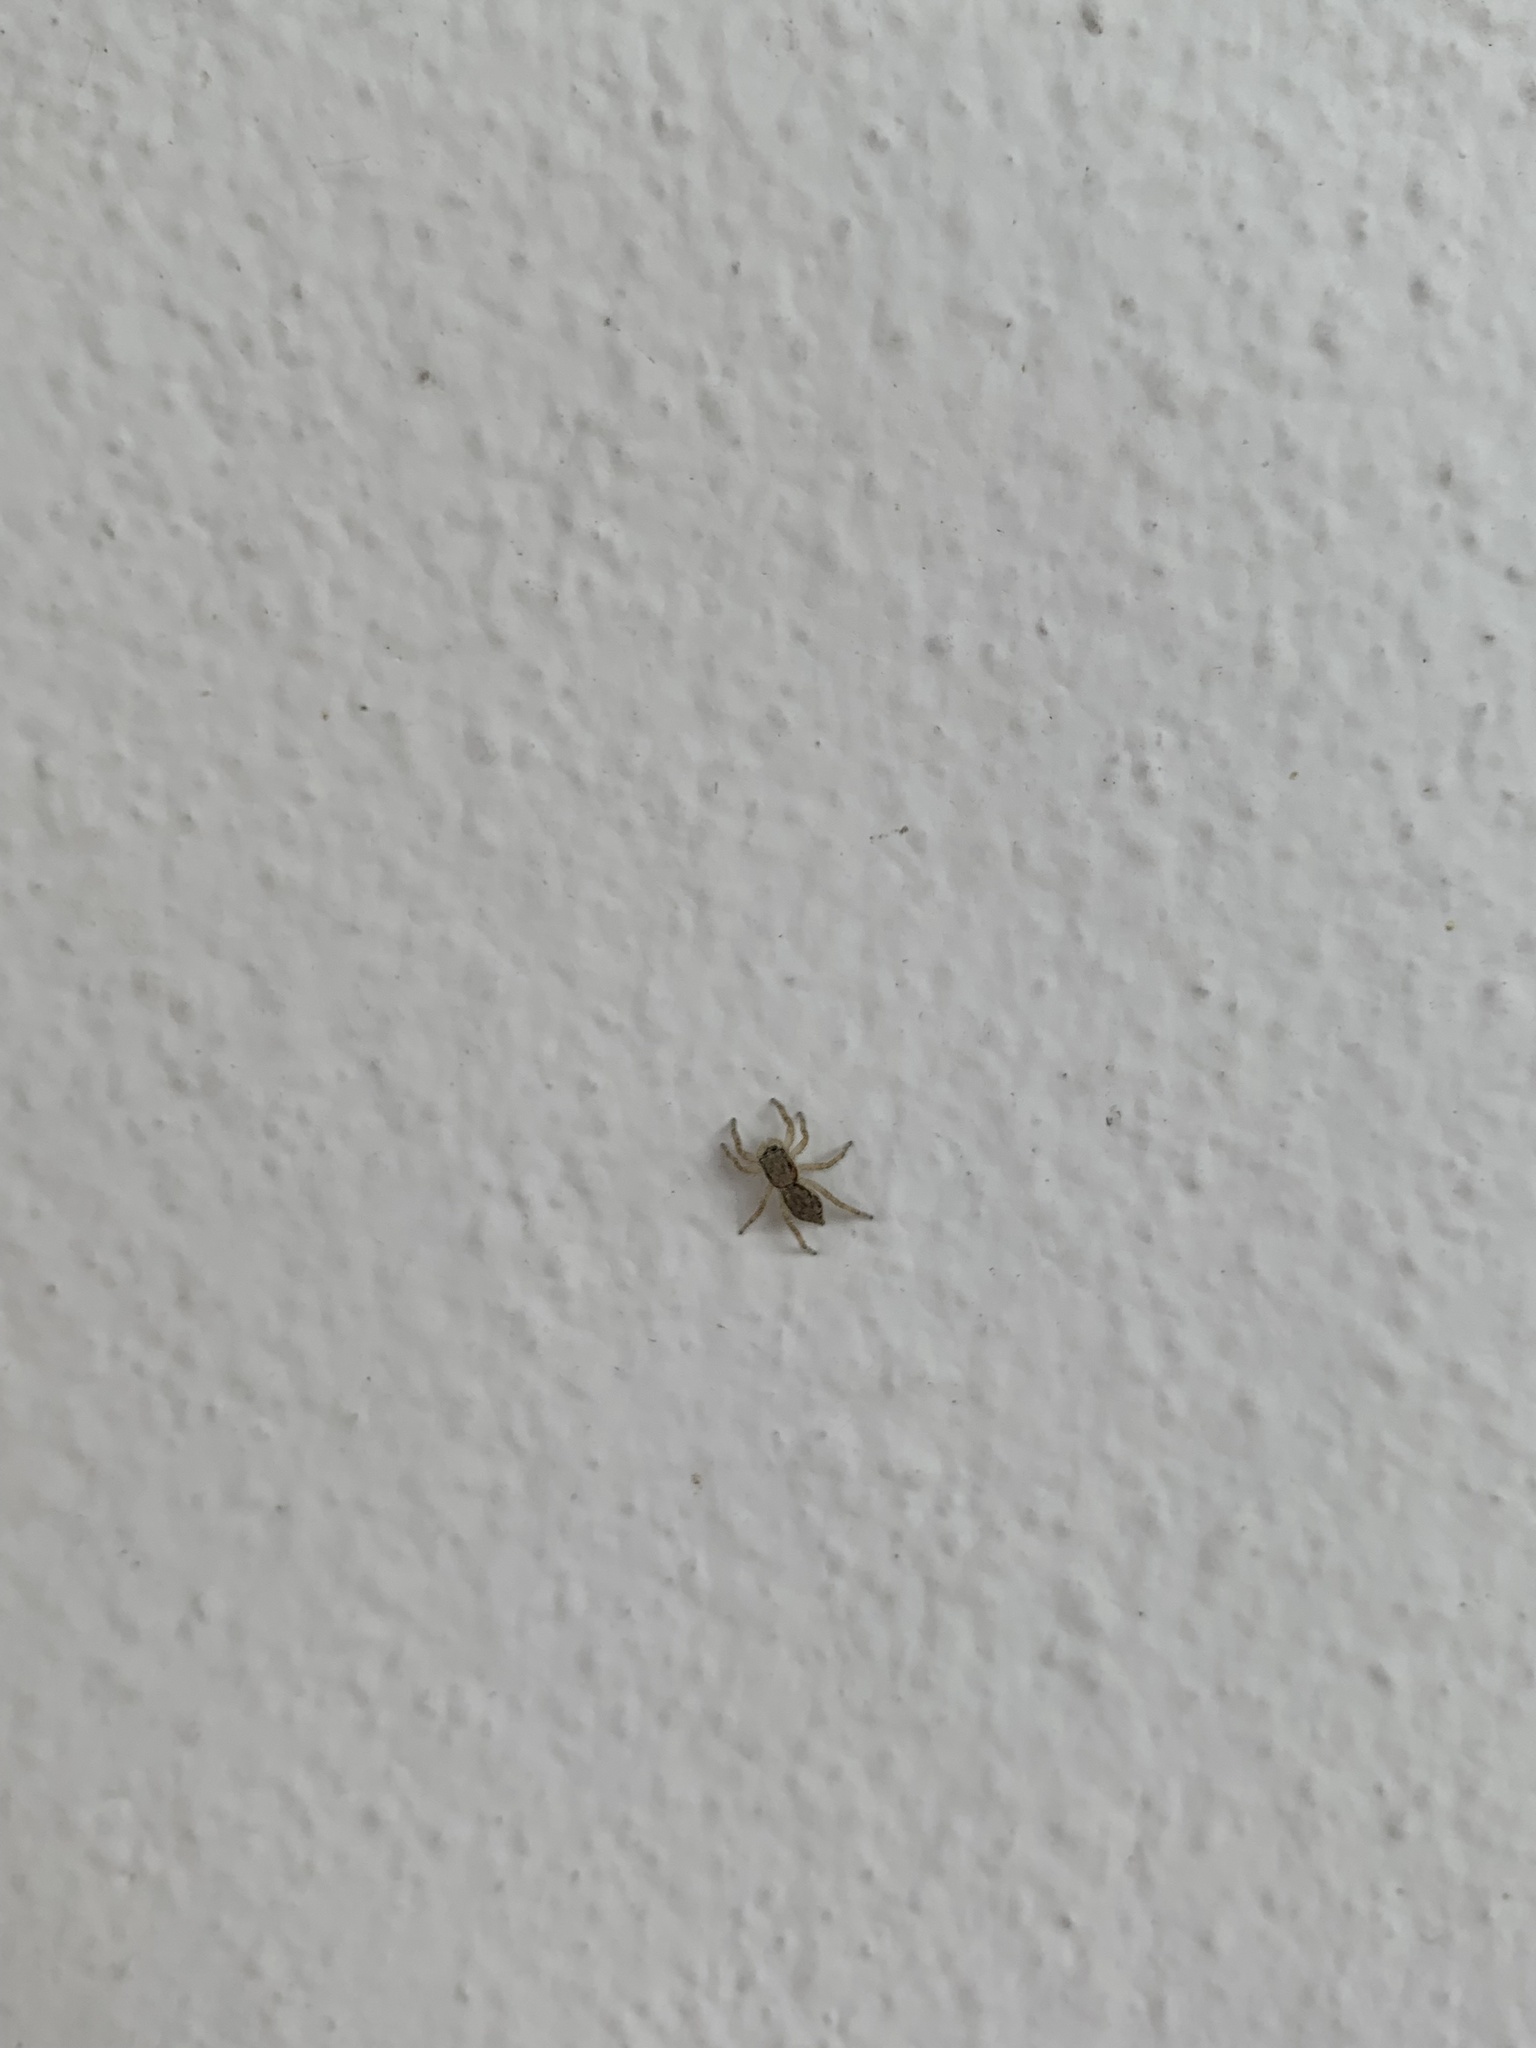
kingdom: Animalia
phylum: Arthropoda
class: Arachnida
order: Araneae
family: Salticidae
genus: Menemerus
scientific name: Menemerus bivittatus
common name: Gray wall jumper
